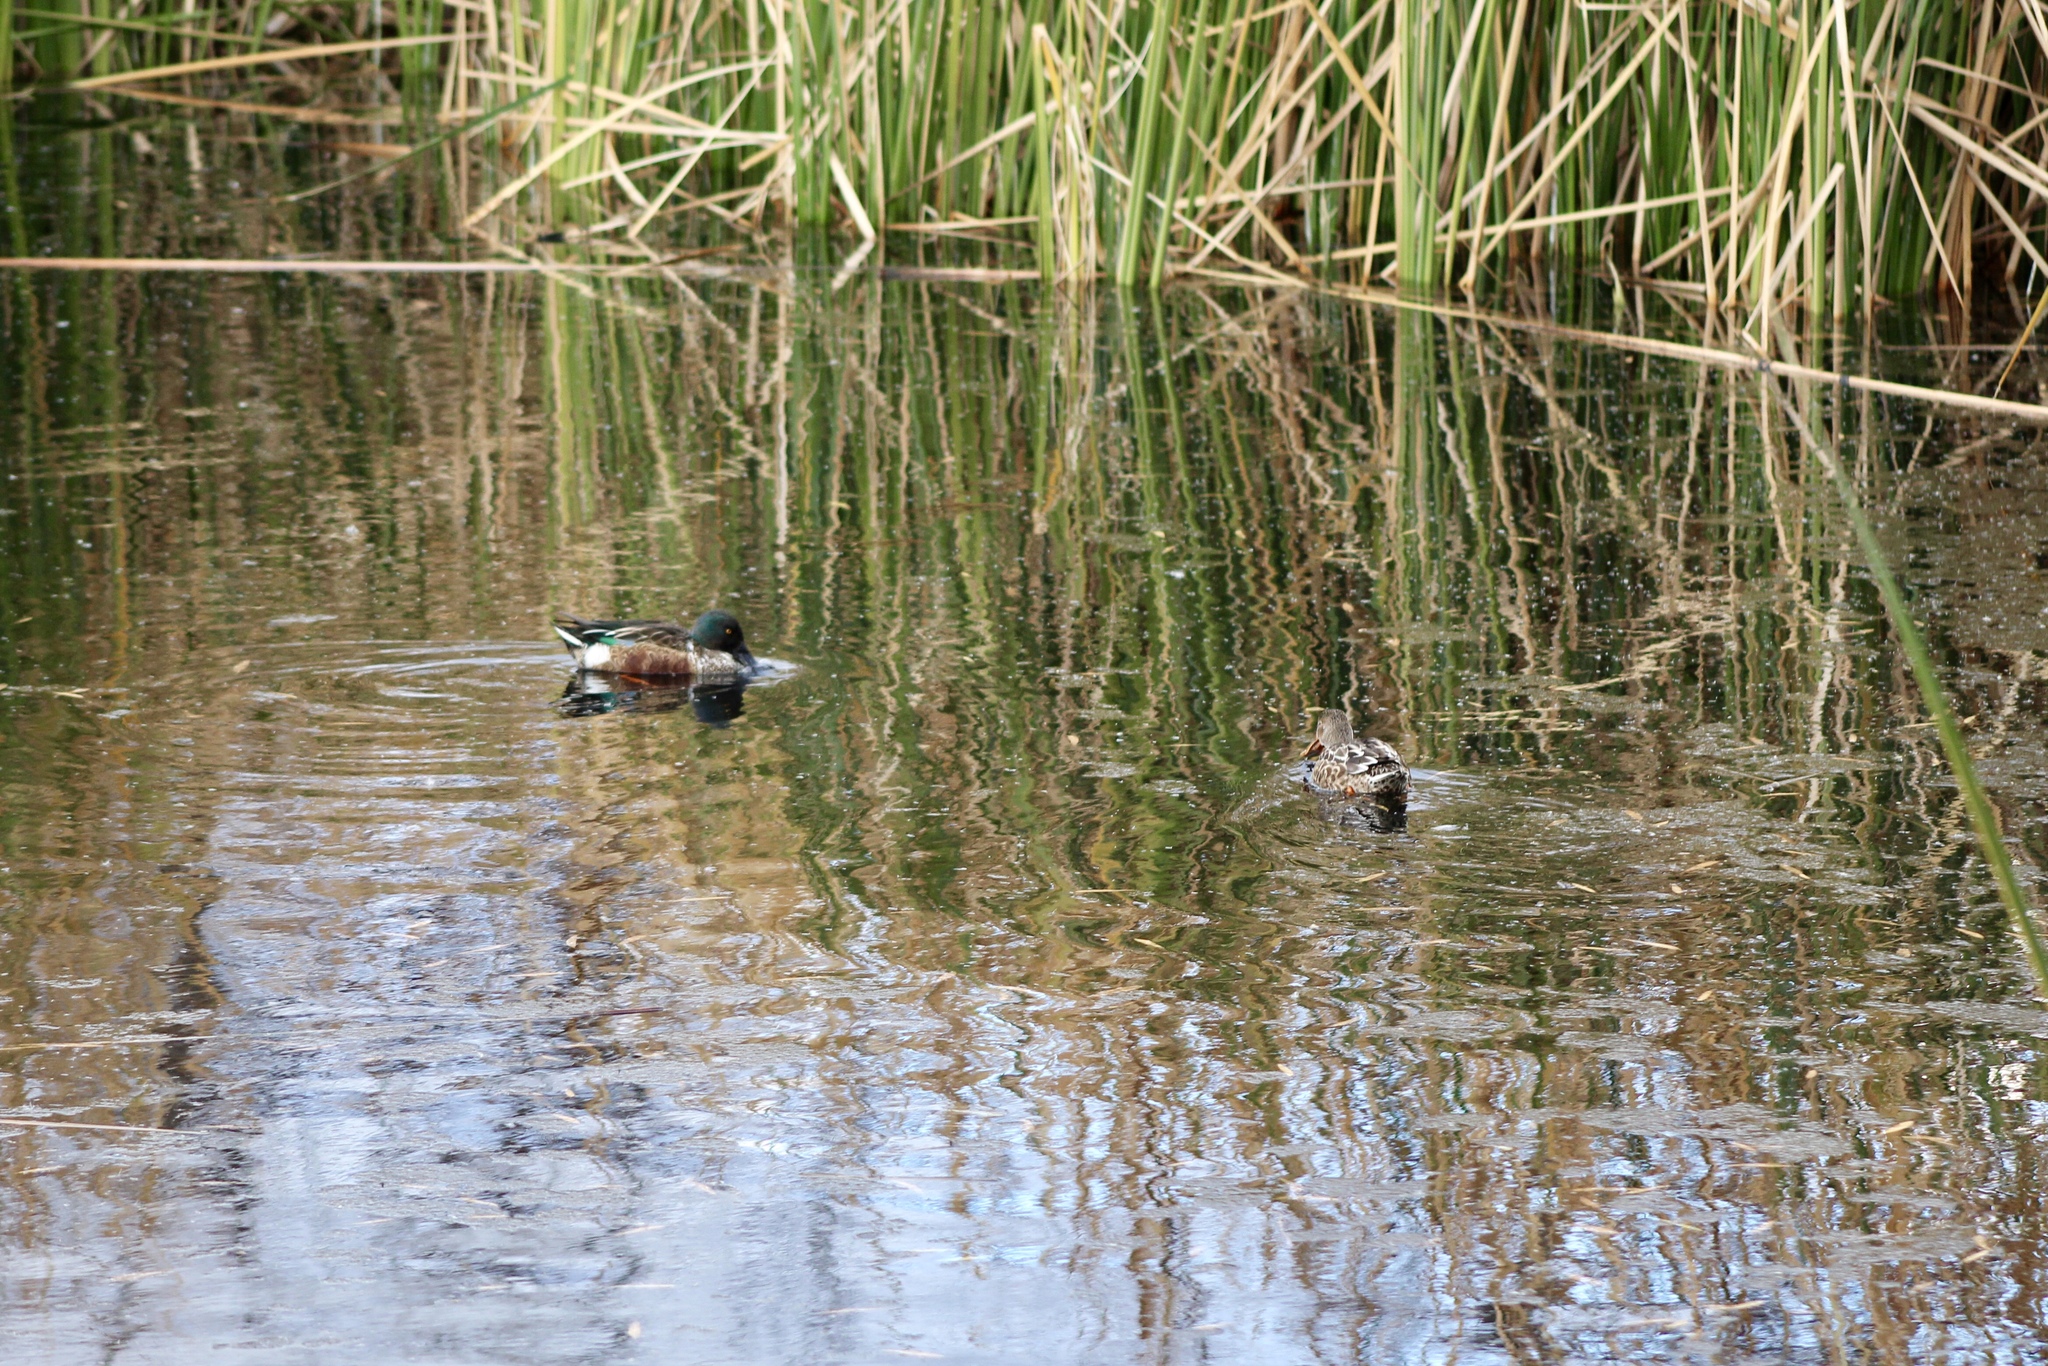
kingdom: Animalia
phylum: Chordata
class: Aves
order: Anseriformes
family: Anatidae
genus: Spatula
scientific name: Spatula clypeata
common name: Northern shoveler
